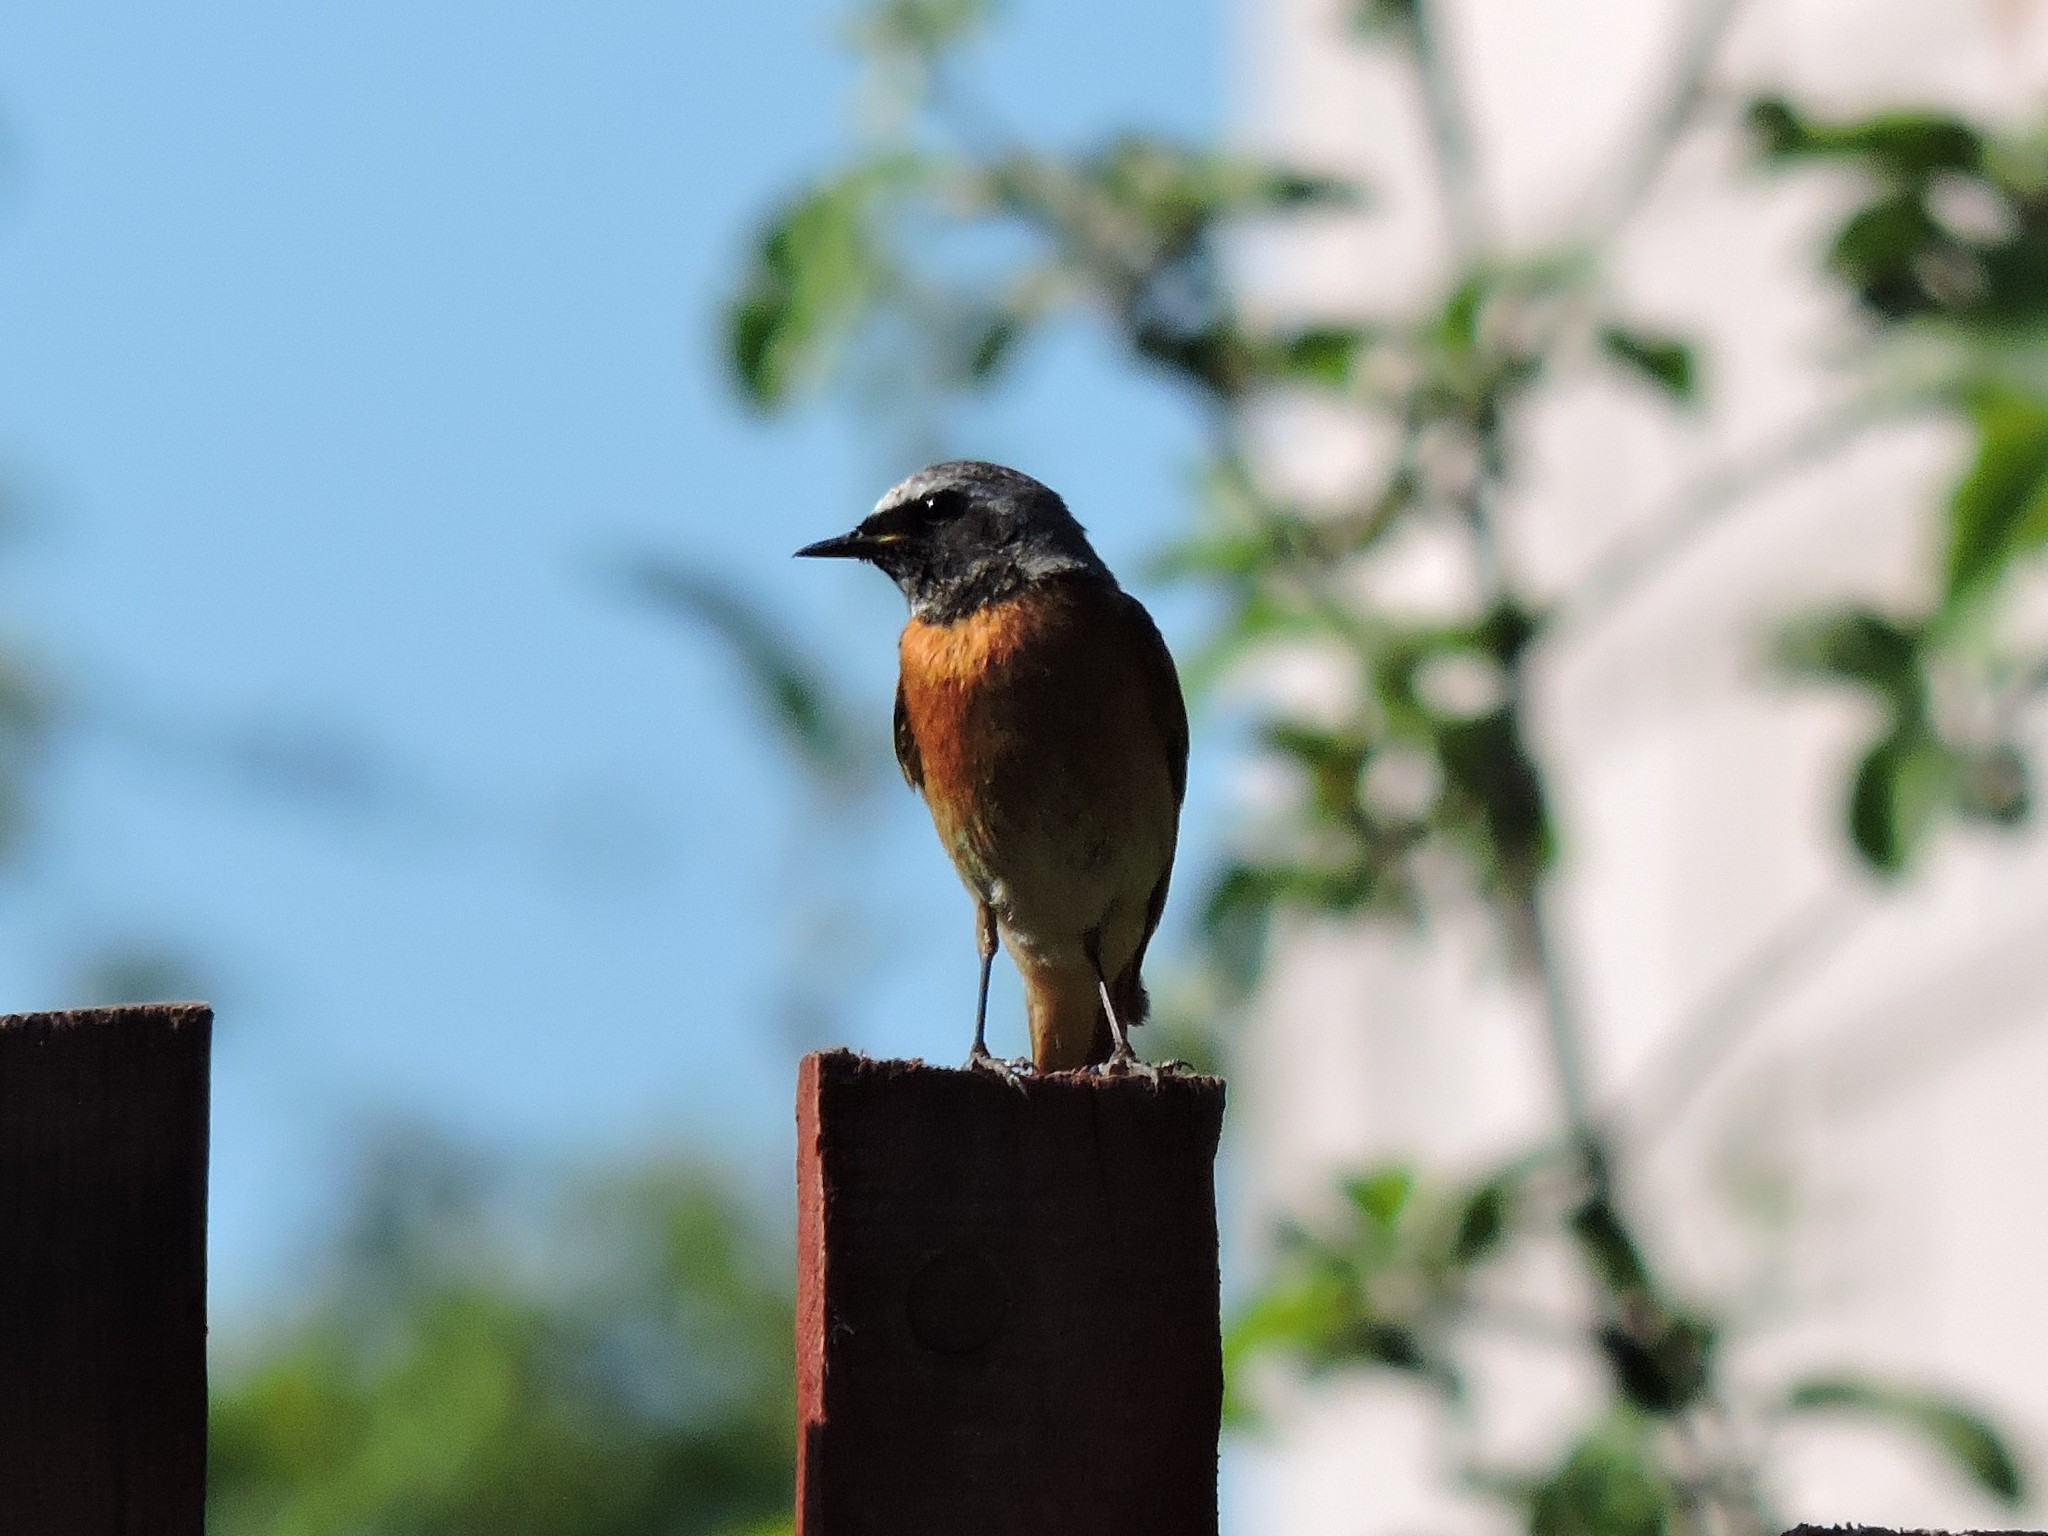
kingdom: Animalia
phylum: Chordata
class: Aves
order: Passeriformes
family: Muscicapidae
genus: Phoenicurus
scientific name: Phoenicurus phoenicurus
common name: Common redstart
